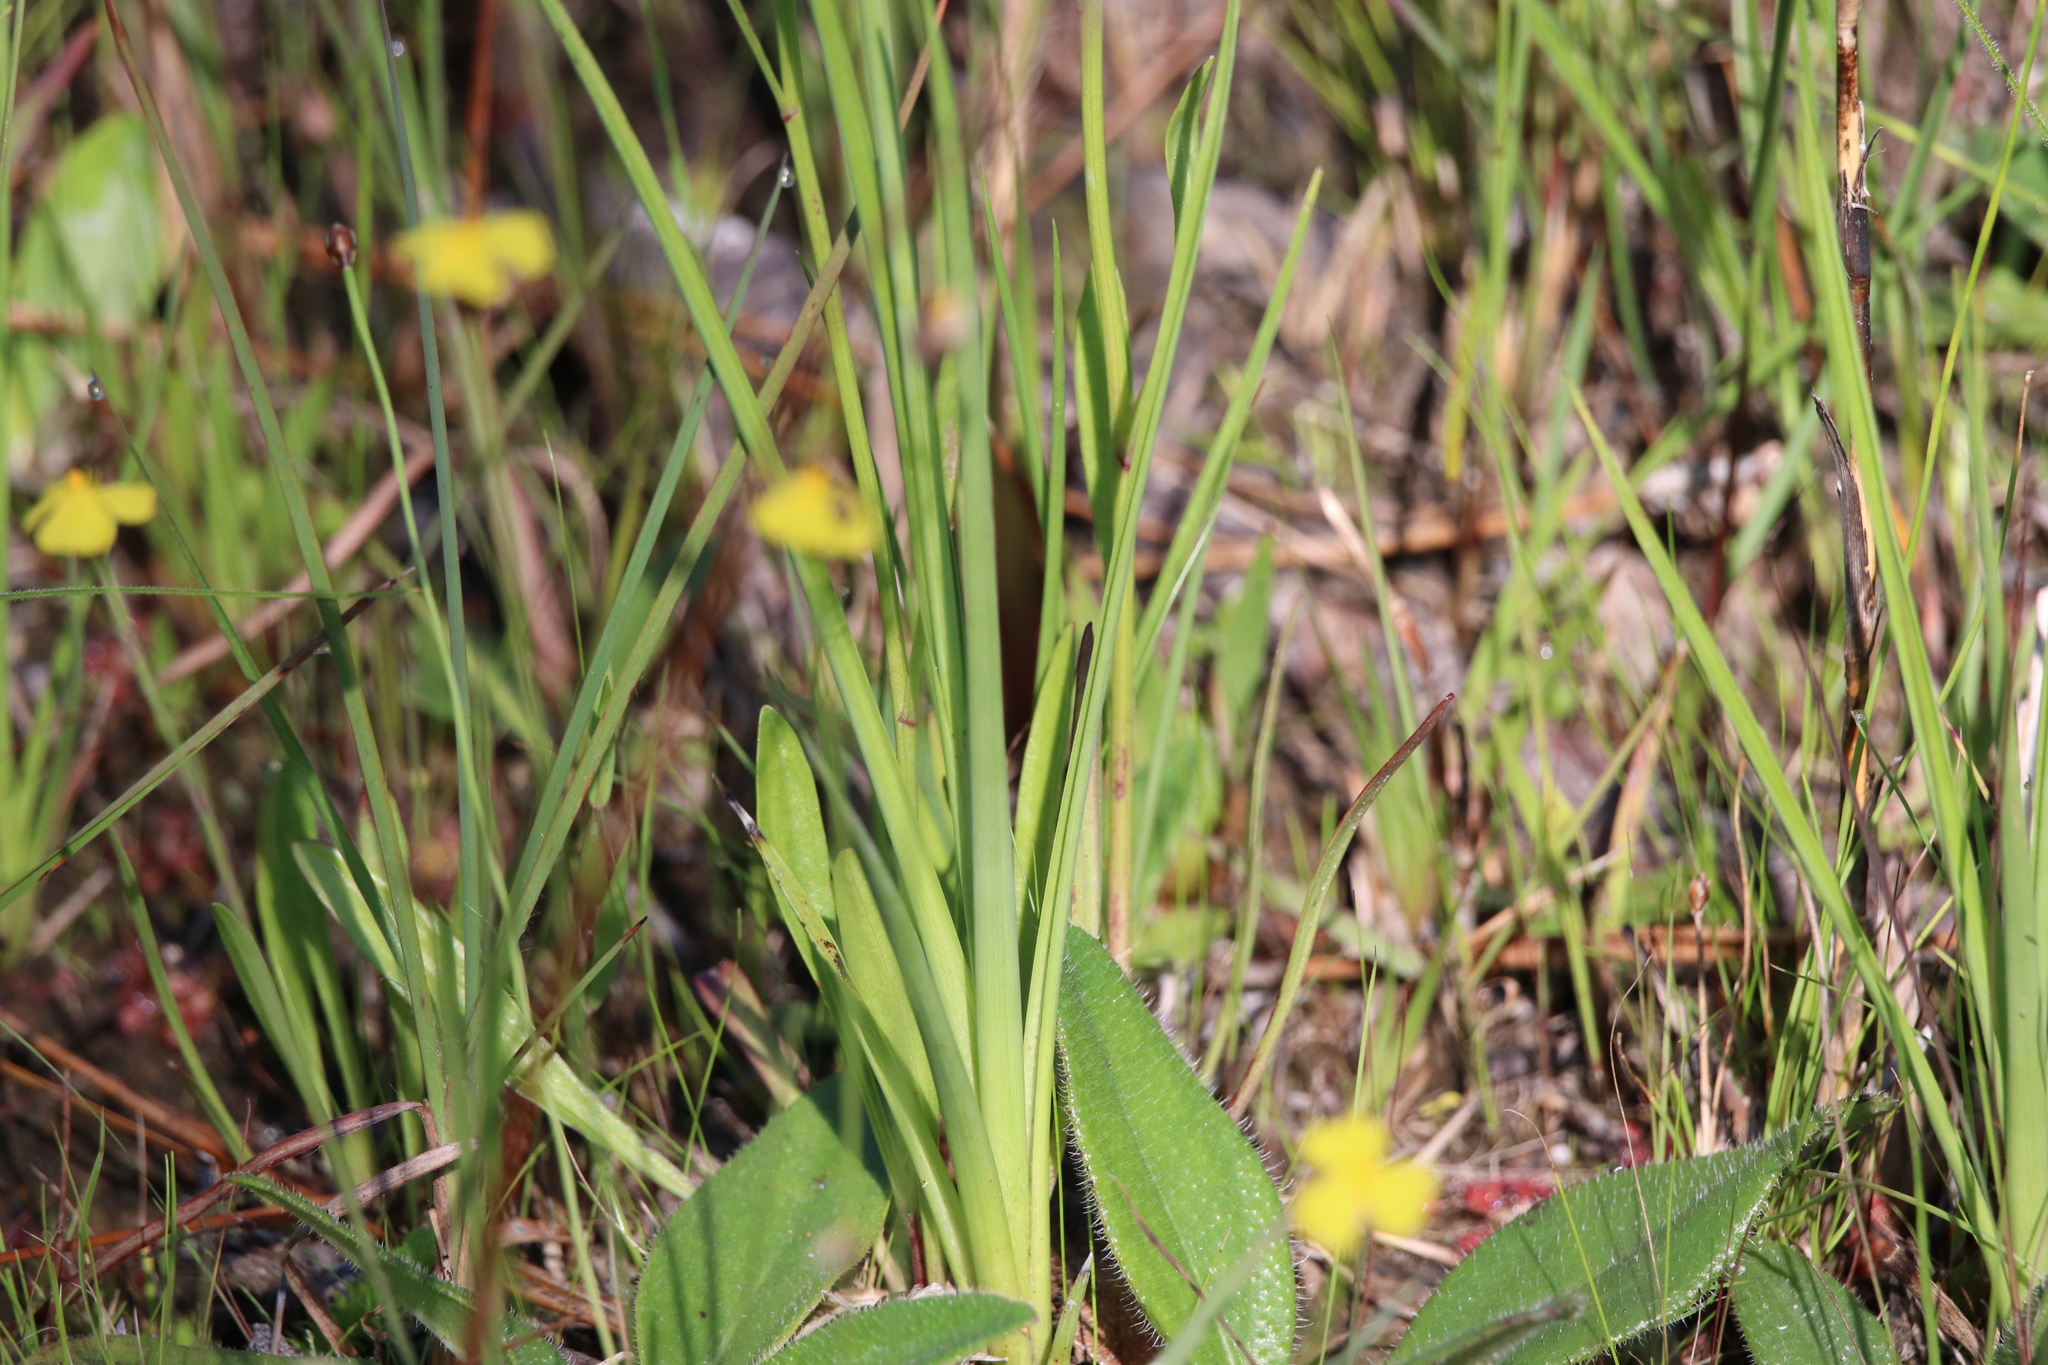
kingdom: Plantae
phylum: Tracheophyta
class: Liliopsida
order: Poales
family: Cyperaceae
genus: Rhynchospora
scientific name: Rhynchospora latifolia
